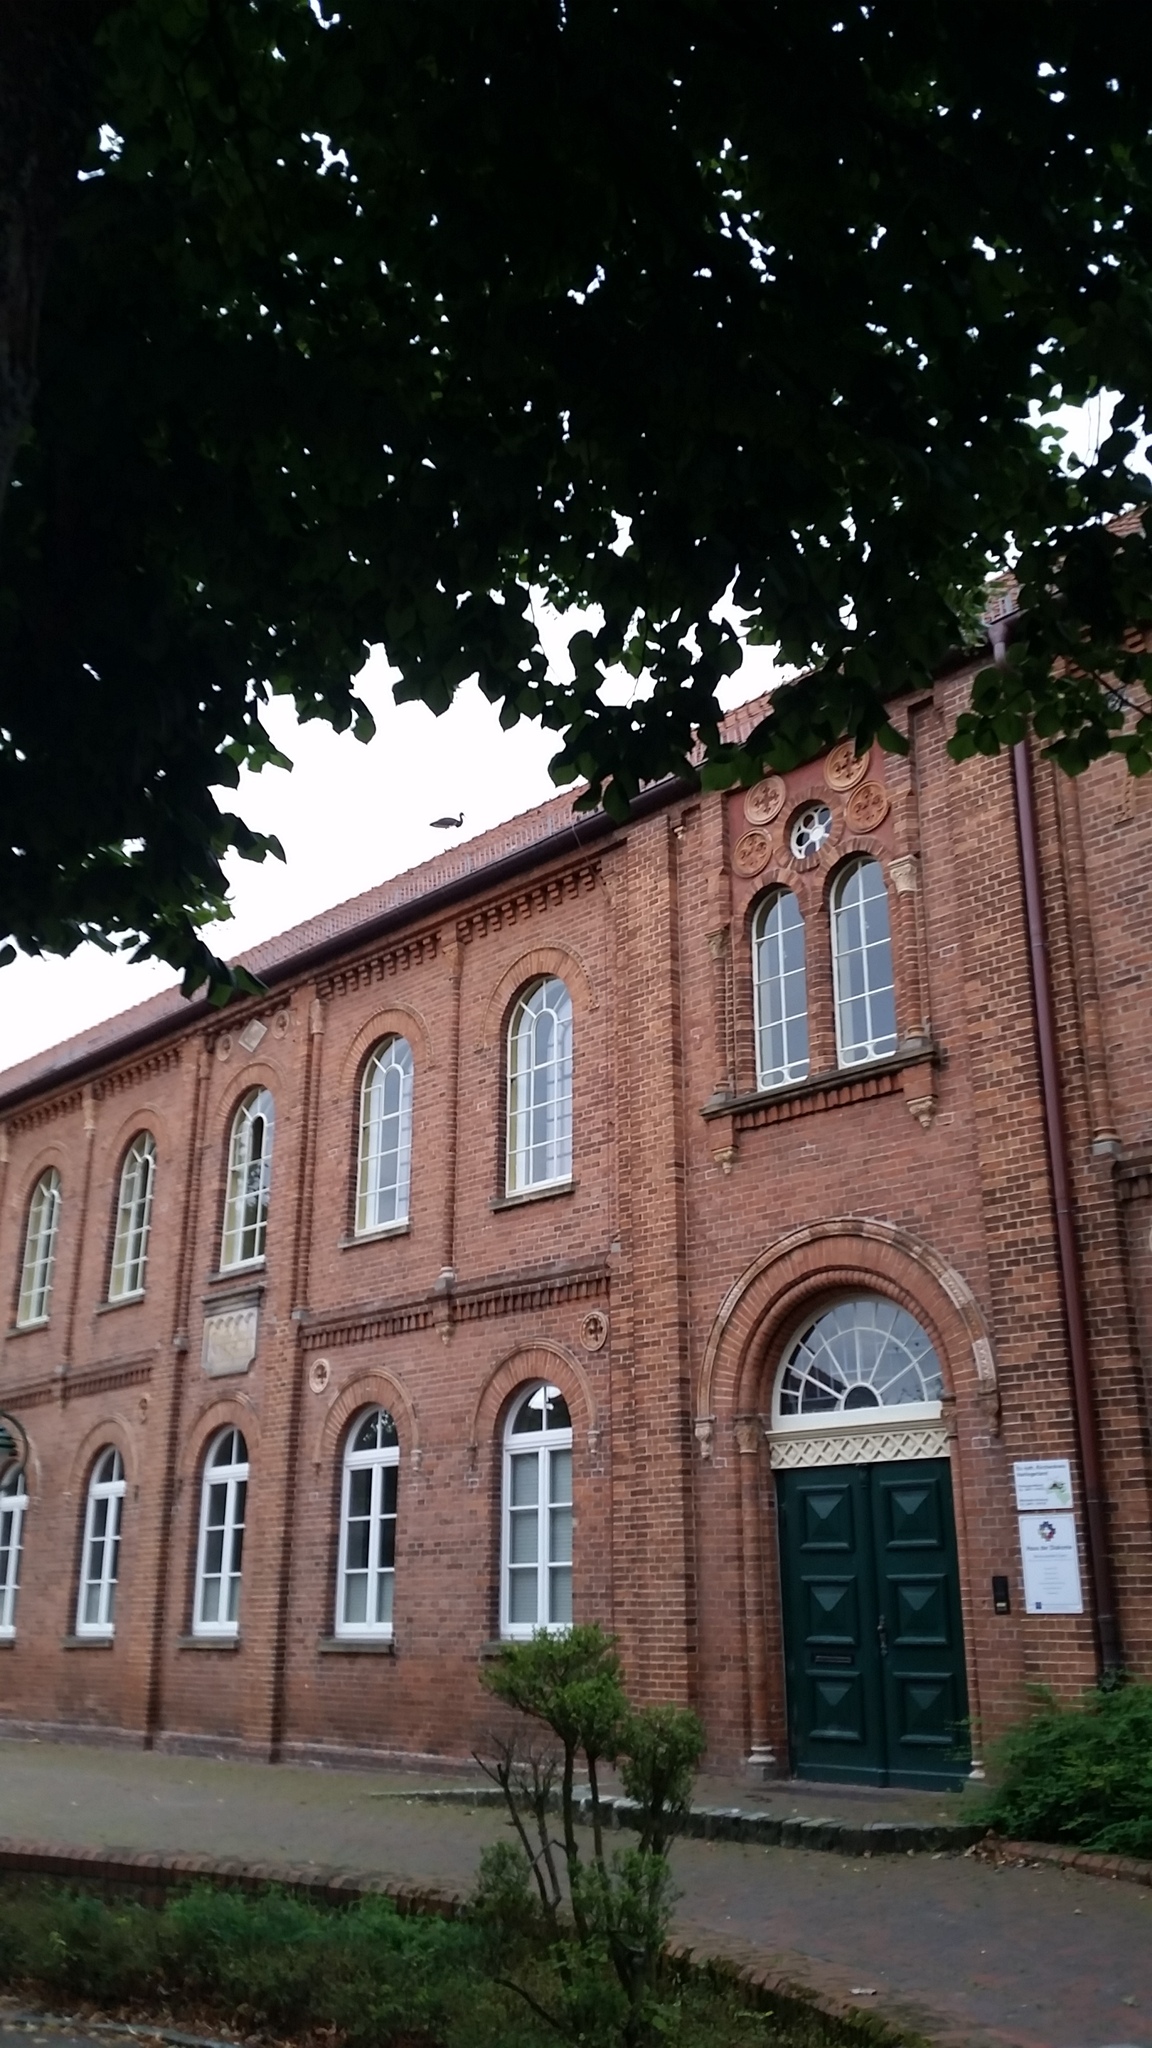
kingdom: Animalia
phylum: Chordata
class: Aves
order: Ciconiiformes
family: Ciconiidae
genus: Ciconia
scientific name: Ciconia nigra
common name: Black stork
